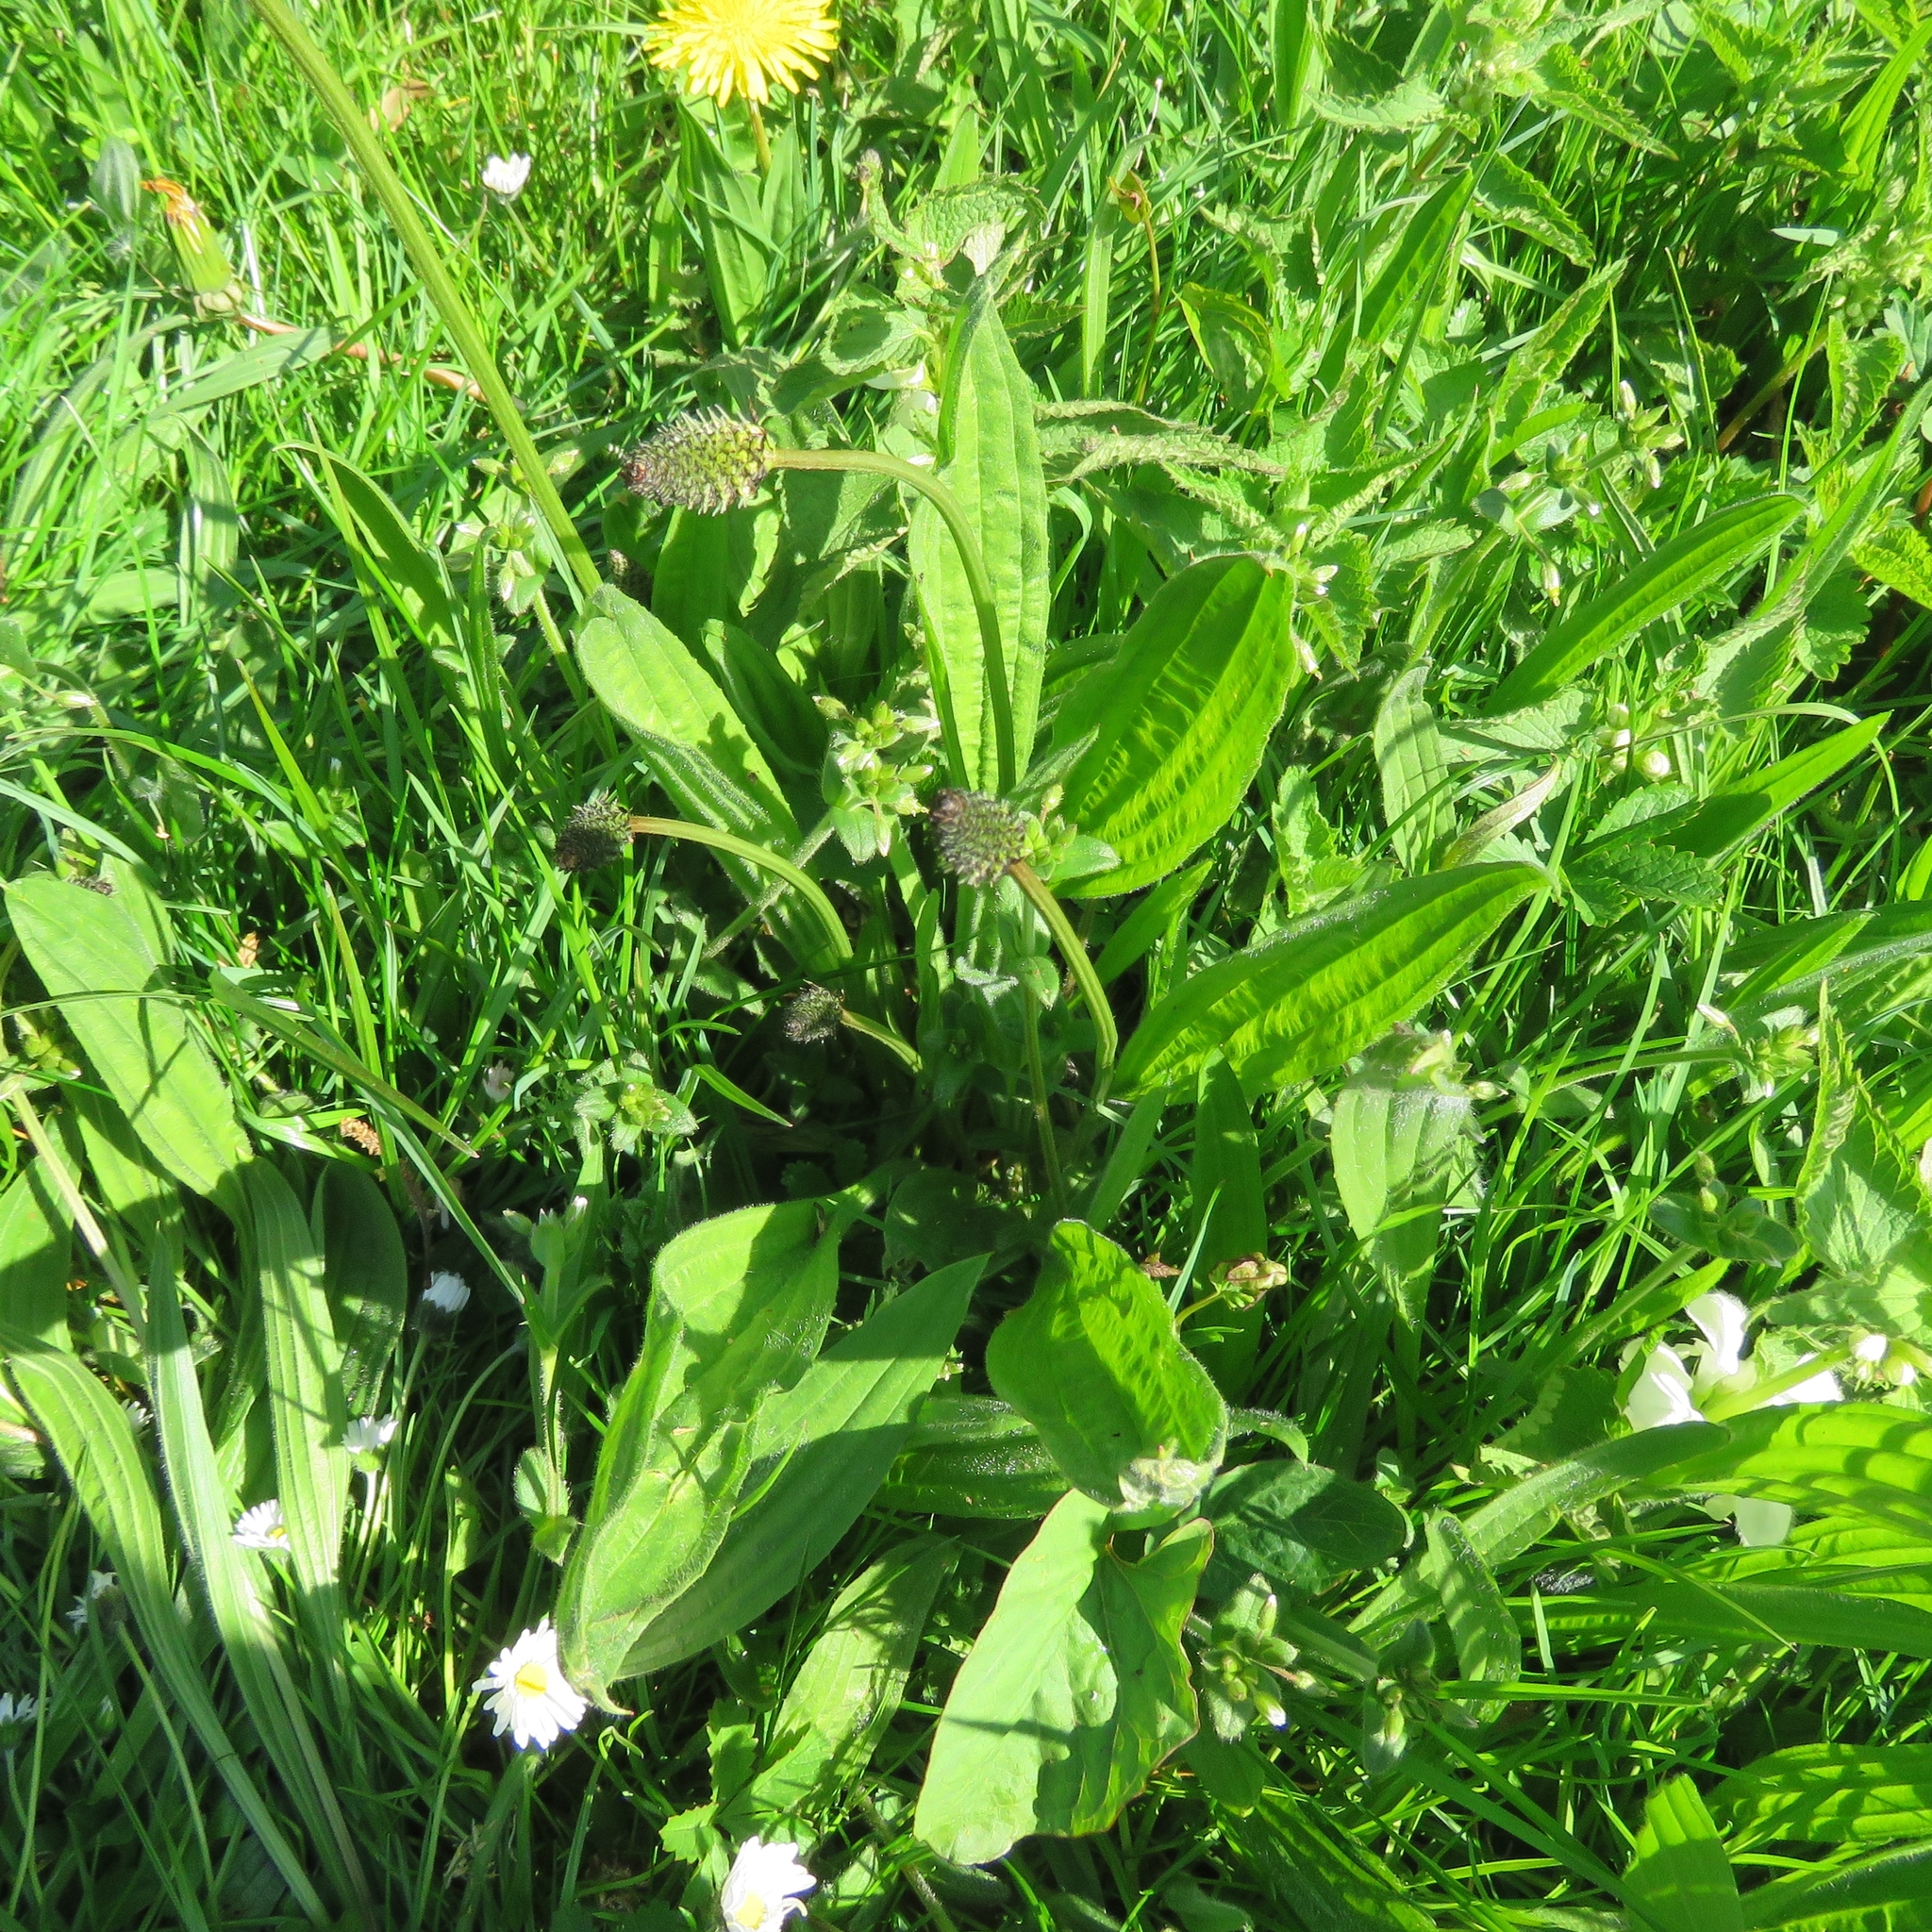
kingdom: Plantae
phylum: Tracheophyta
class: Magnoliopsida
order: Lamiales
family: Plantaginaceae
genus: Plantago
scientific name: Plantago lanceolata
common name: Ribwort plantain
